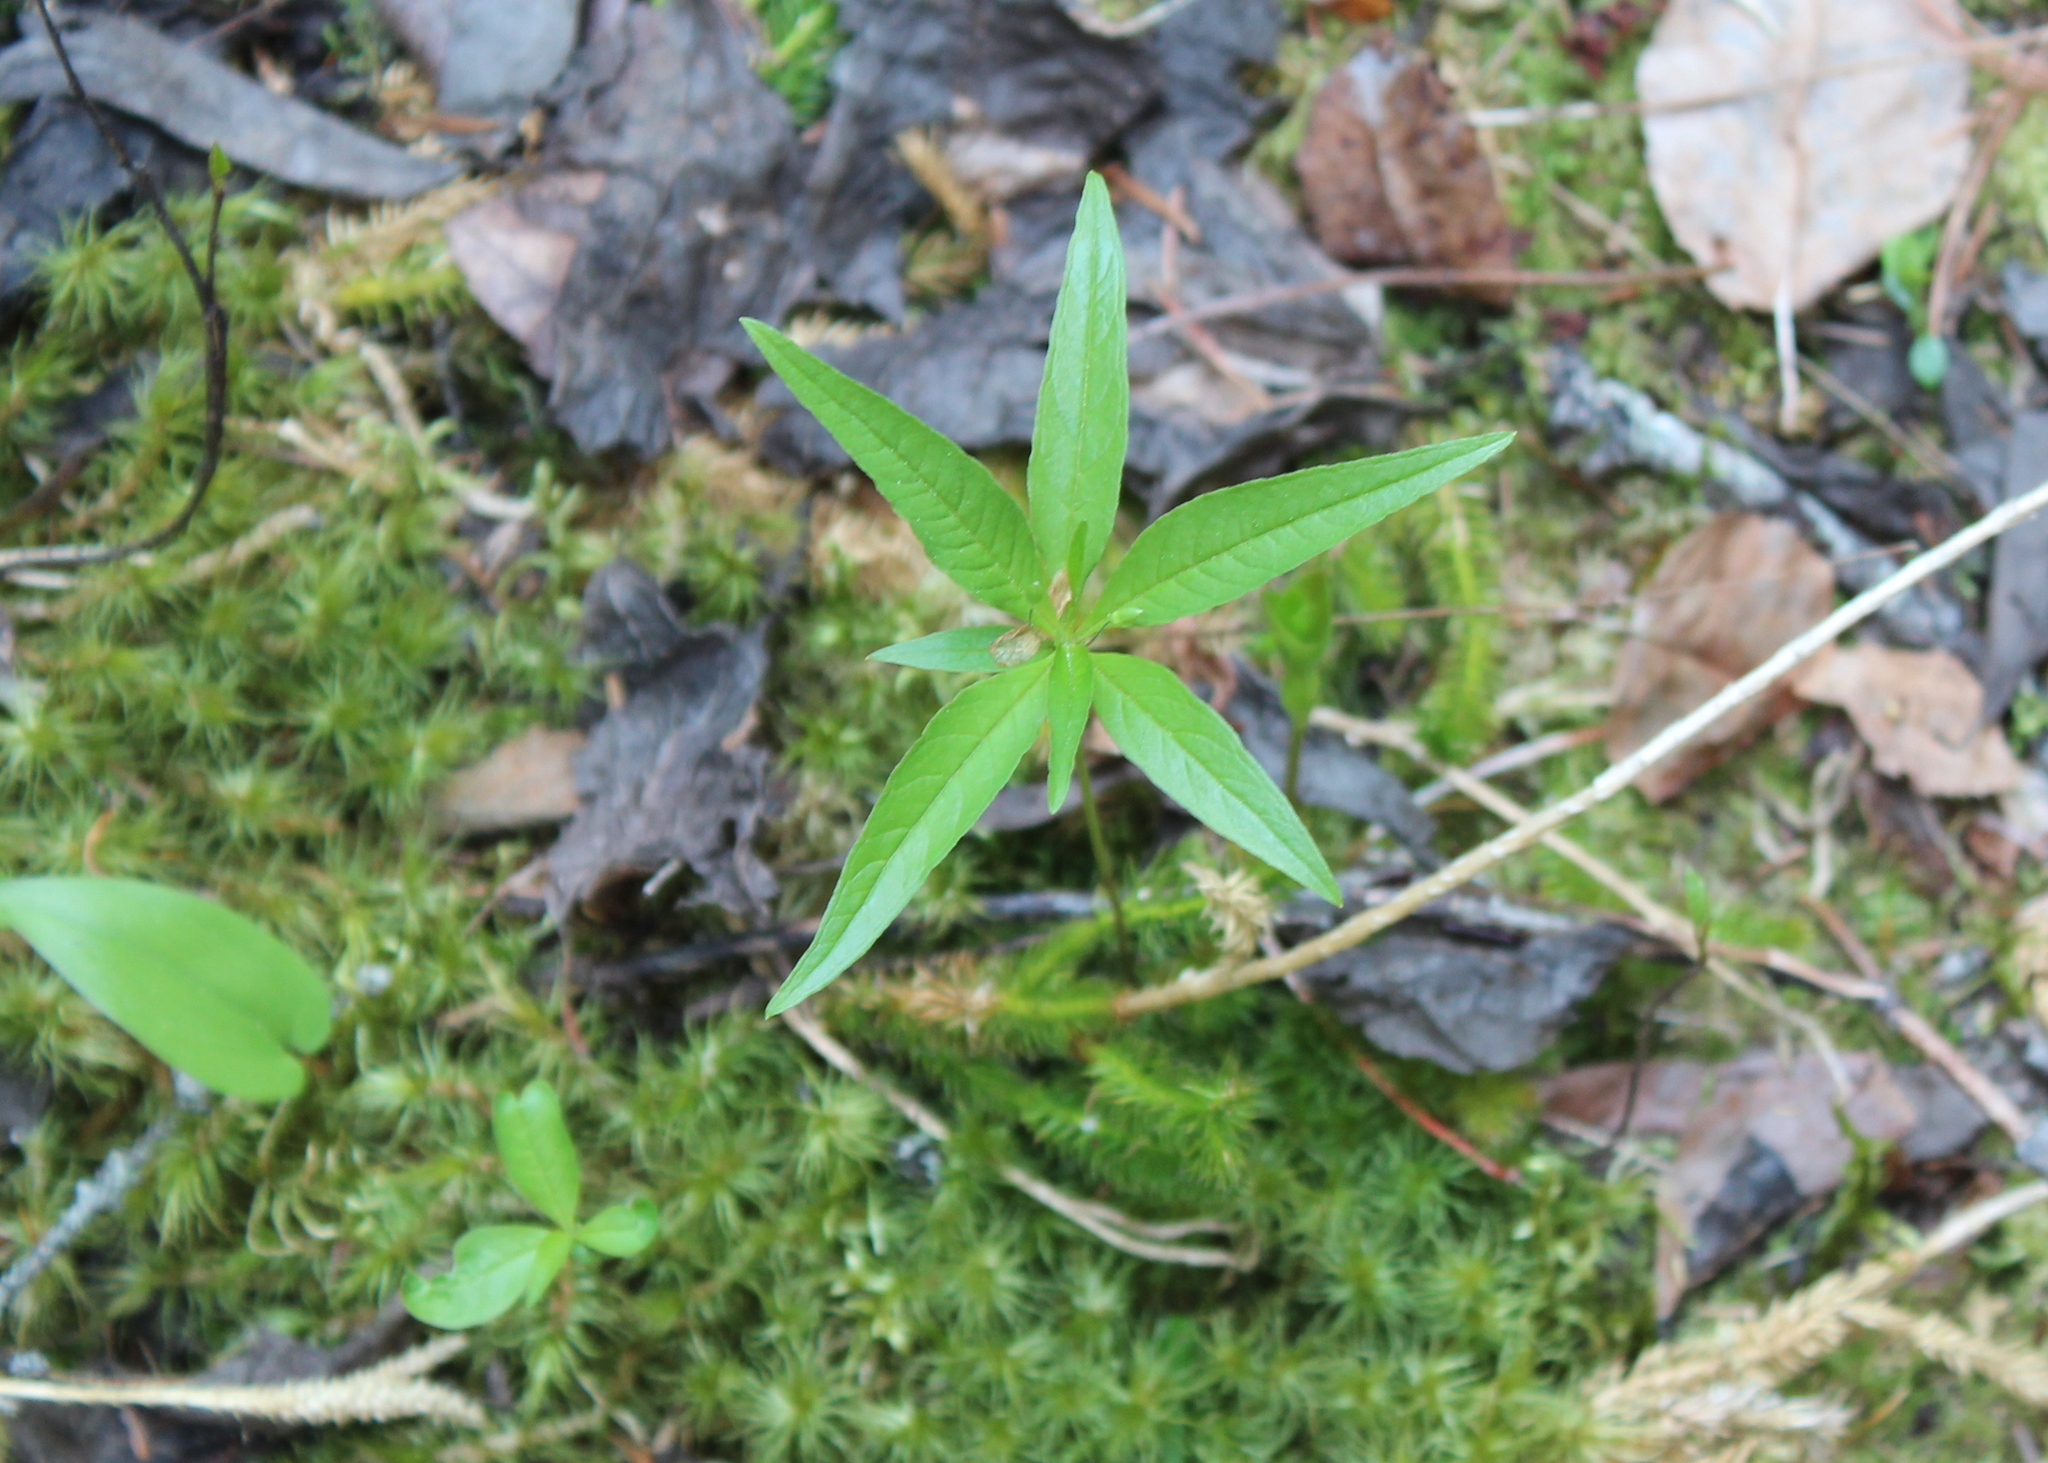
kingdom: Plantae
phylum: Tracheophyta
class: Magnoliopsida
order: Ericales
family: Primulaceae
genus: Lysimachia
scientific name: Lysimachia borealis
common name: American starflower
